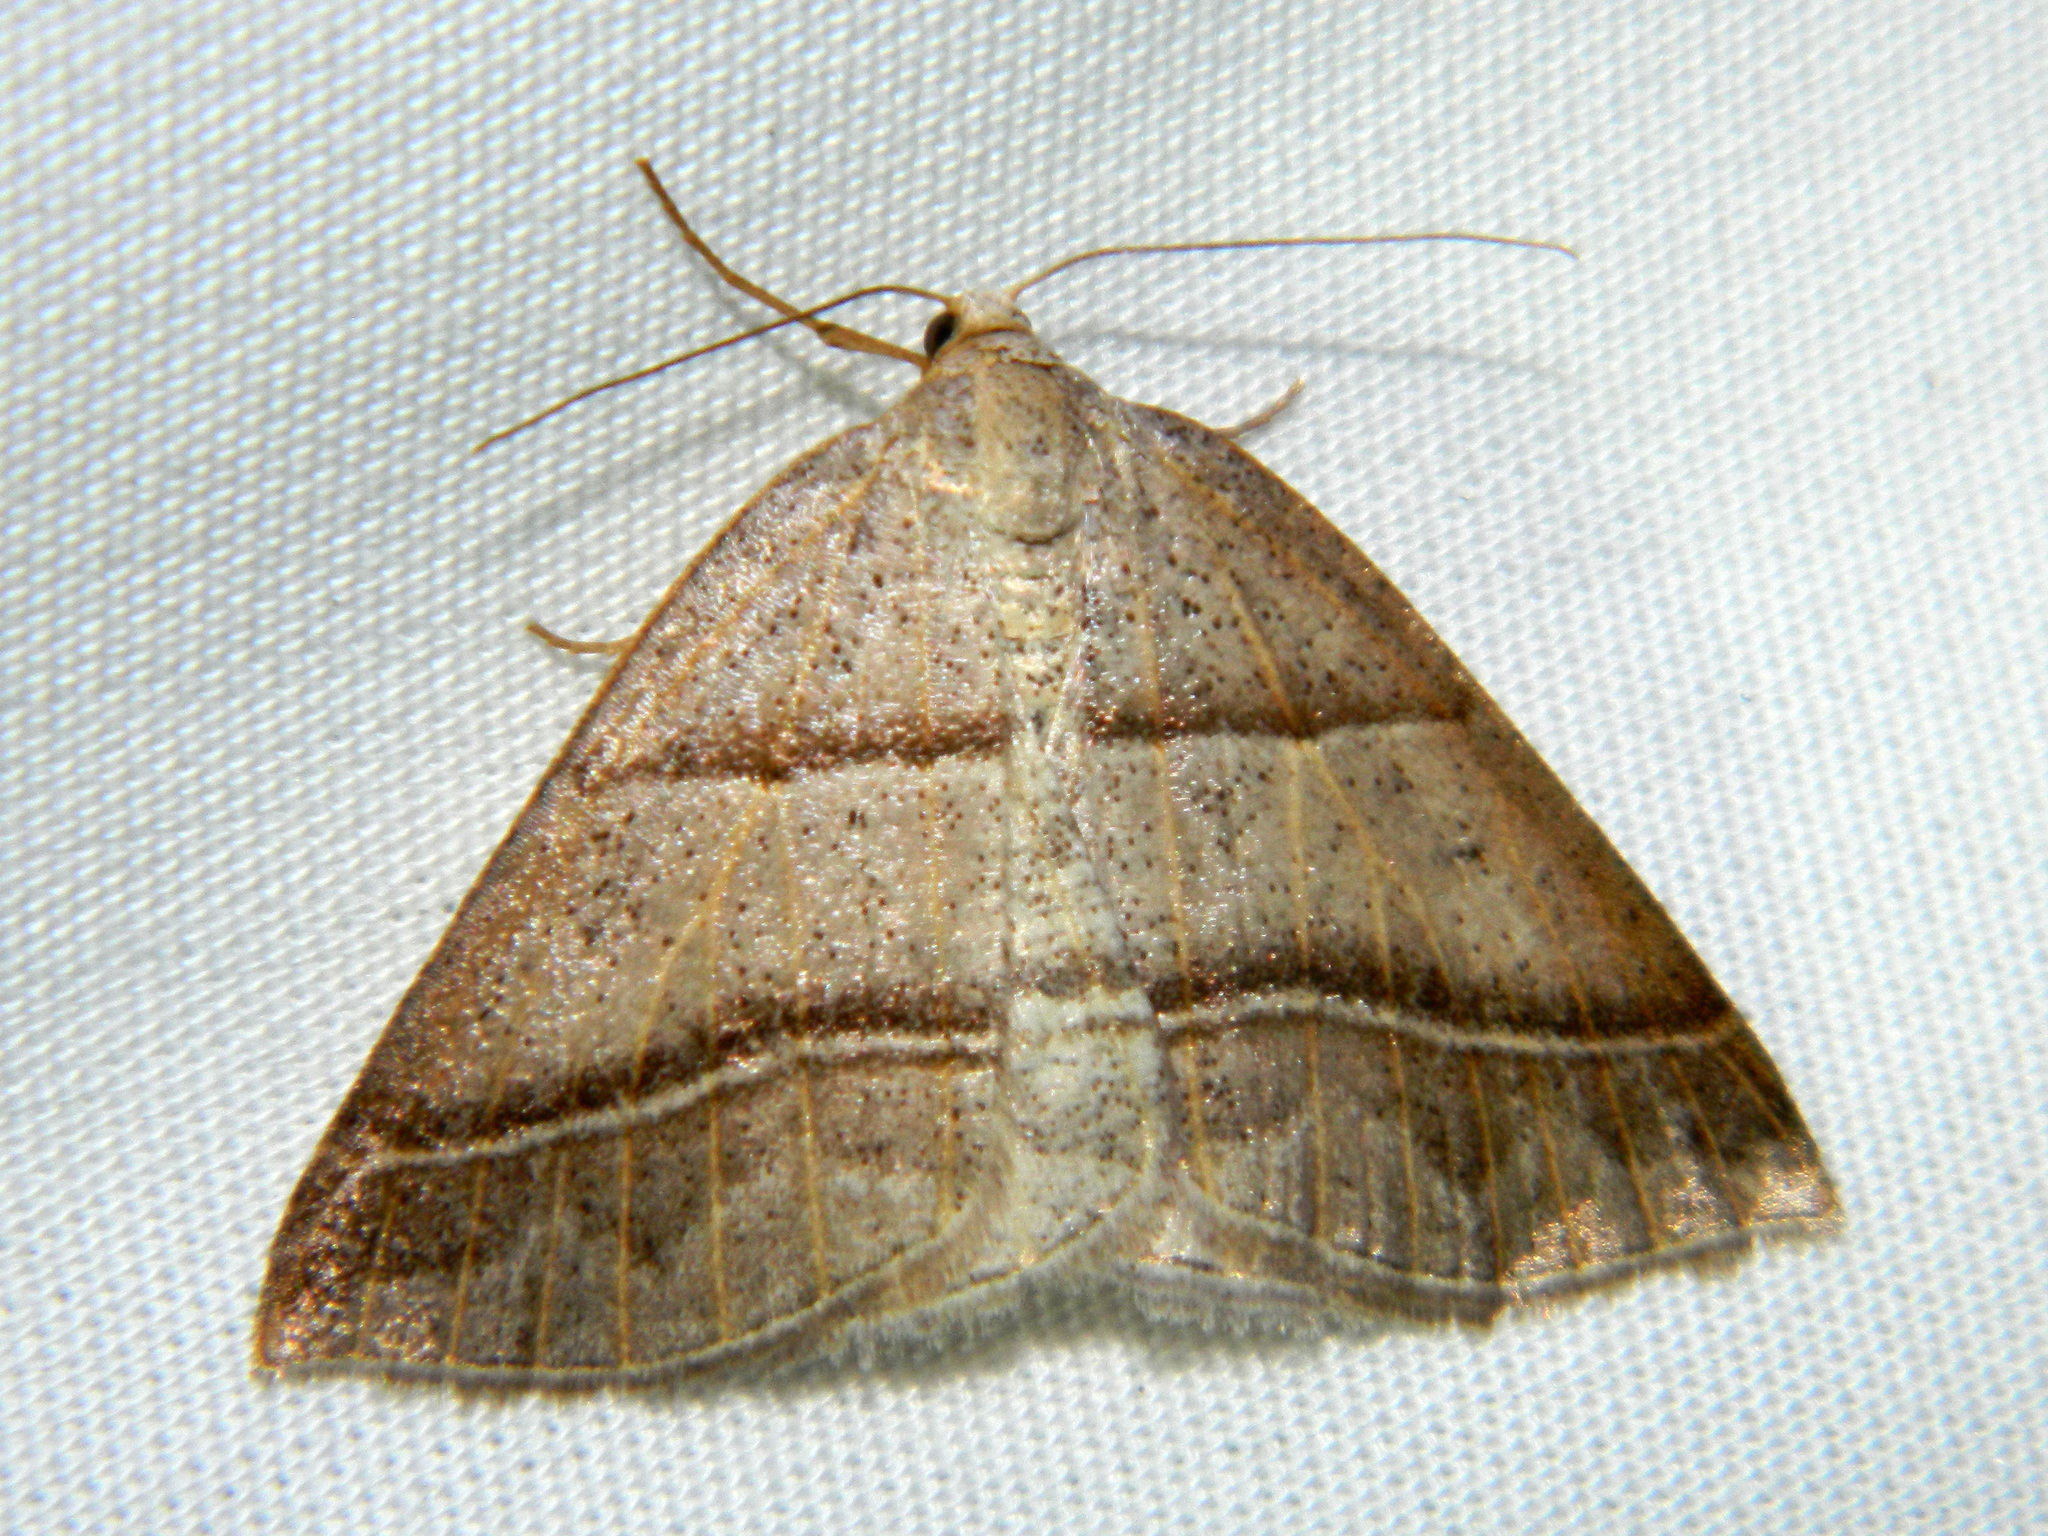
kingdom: Animalia
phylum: Arthropoda
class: Insecta
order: Lepidoptera
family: Pterophoridae
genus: Pterophorus
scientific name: Pterophorus Petrophora subaequaria
